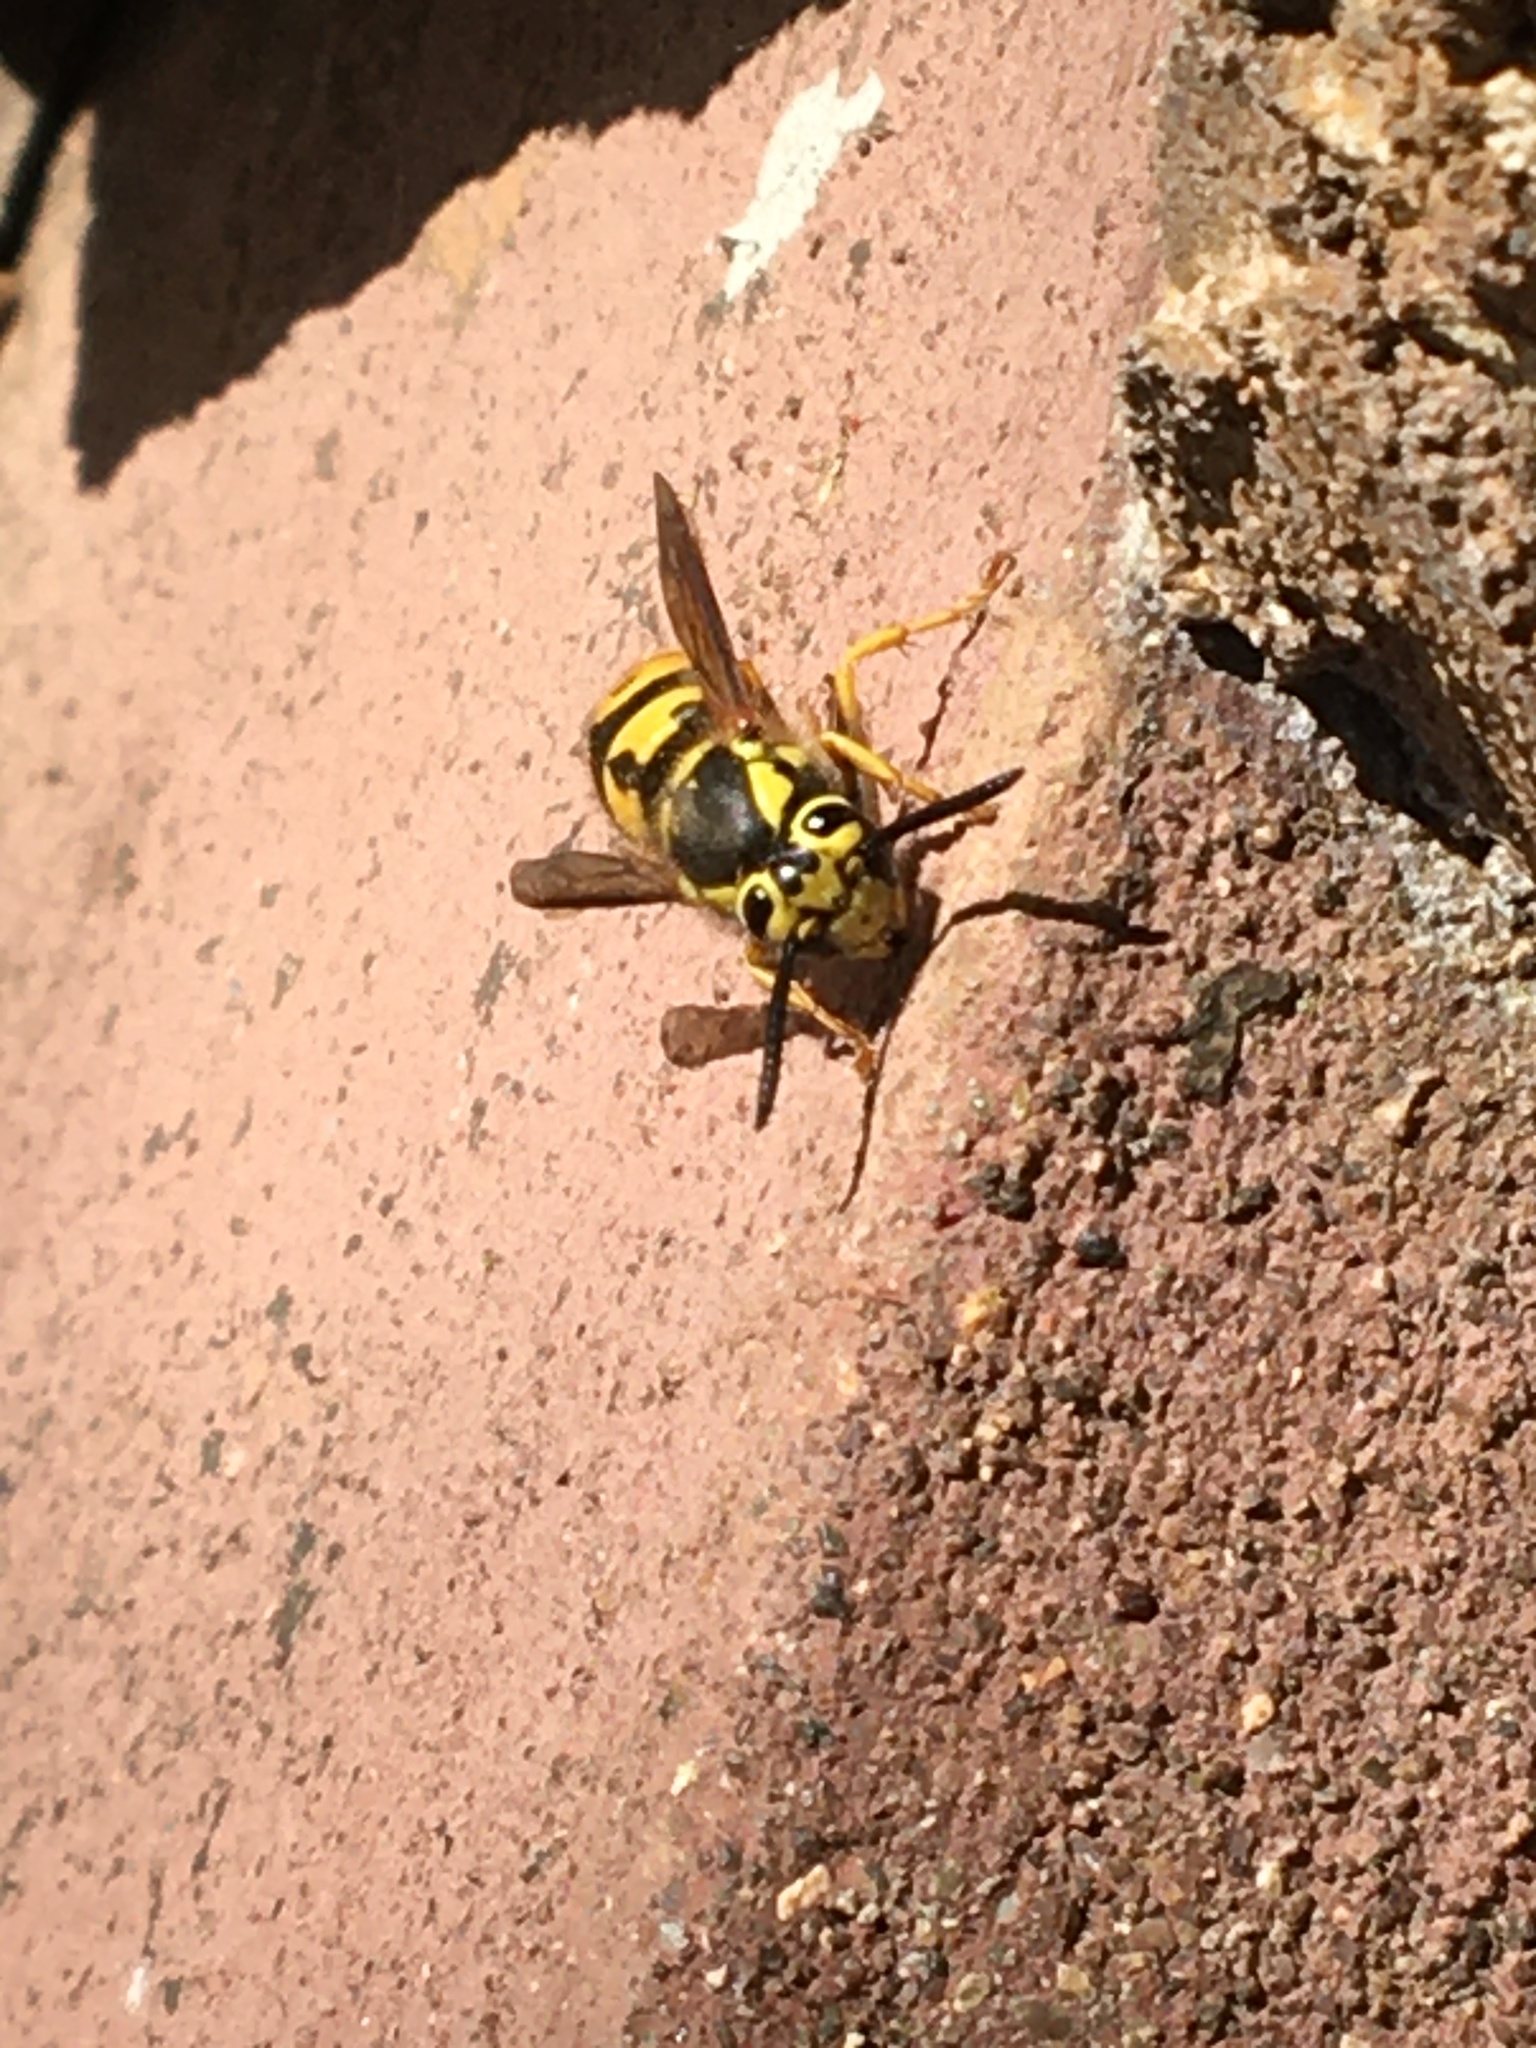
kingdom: Animalia
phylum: Arthropoda
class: Insecta
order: Hymenoptera
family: Vespidae
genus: Vespula
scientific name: Vespula pensylvanica
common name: Western yellowjacket
